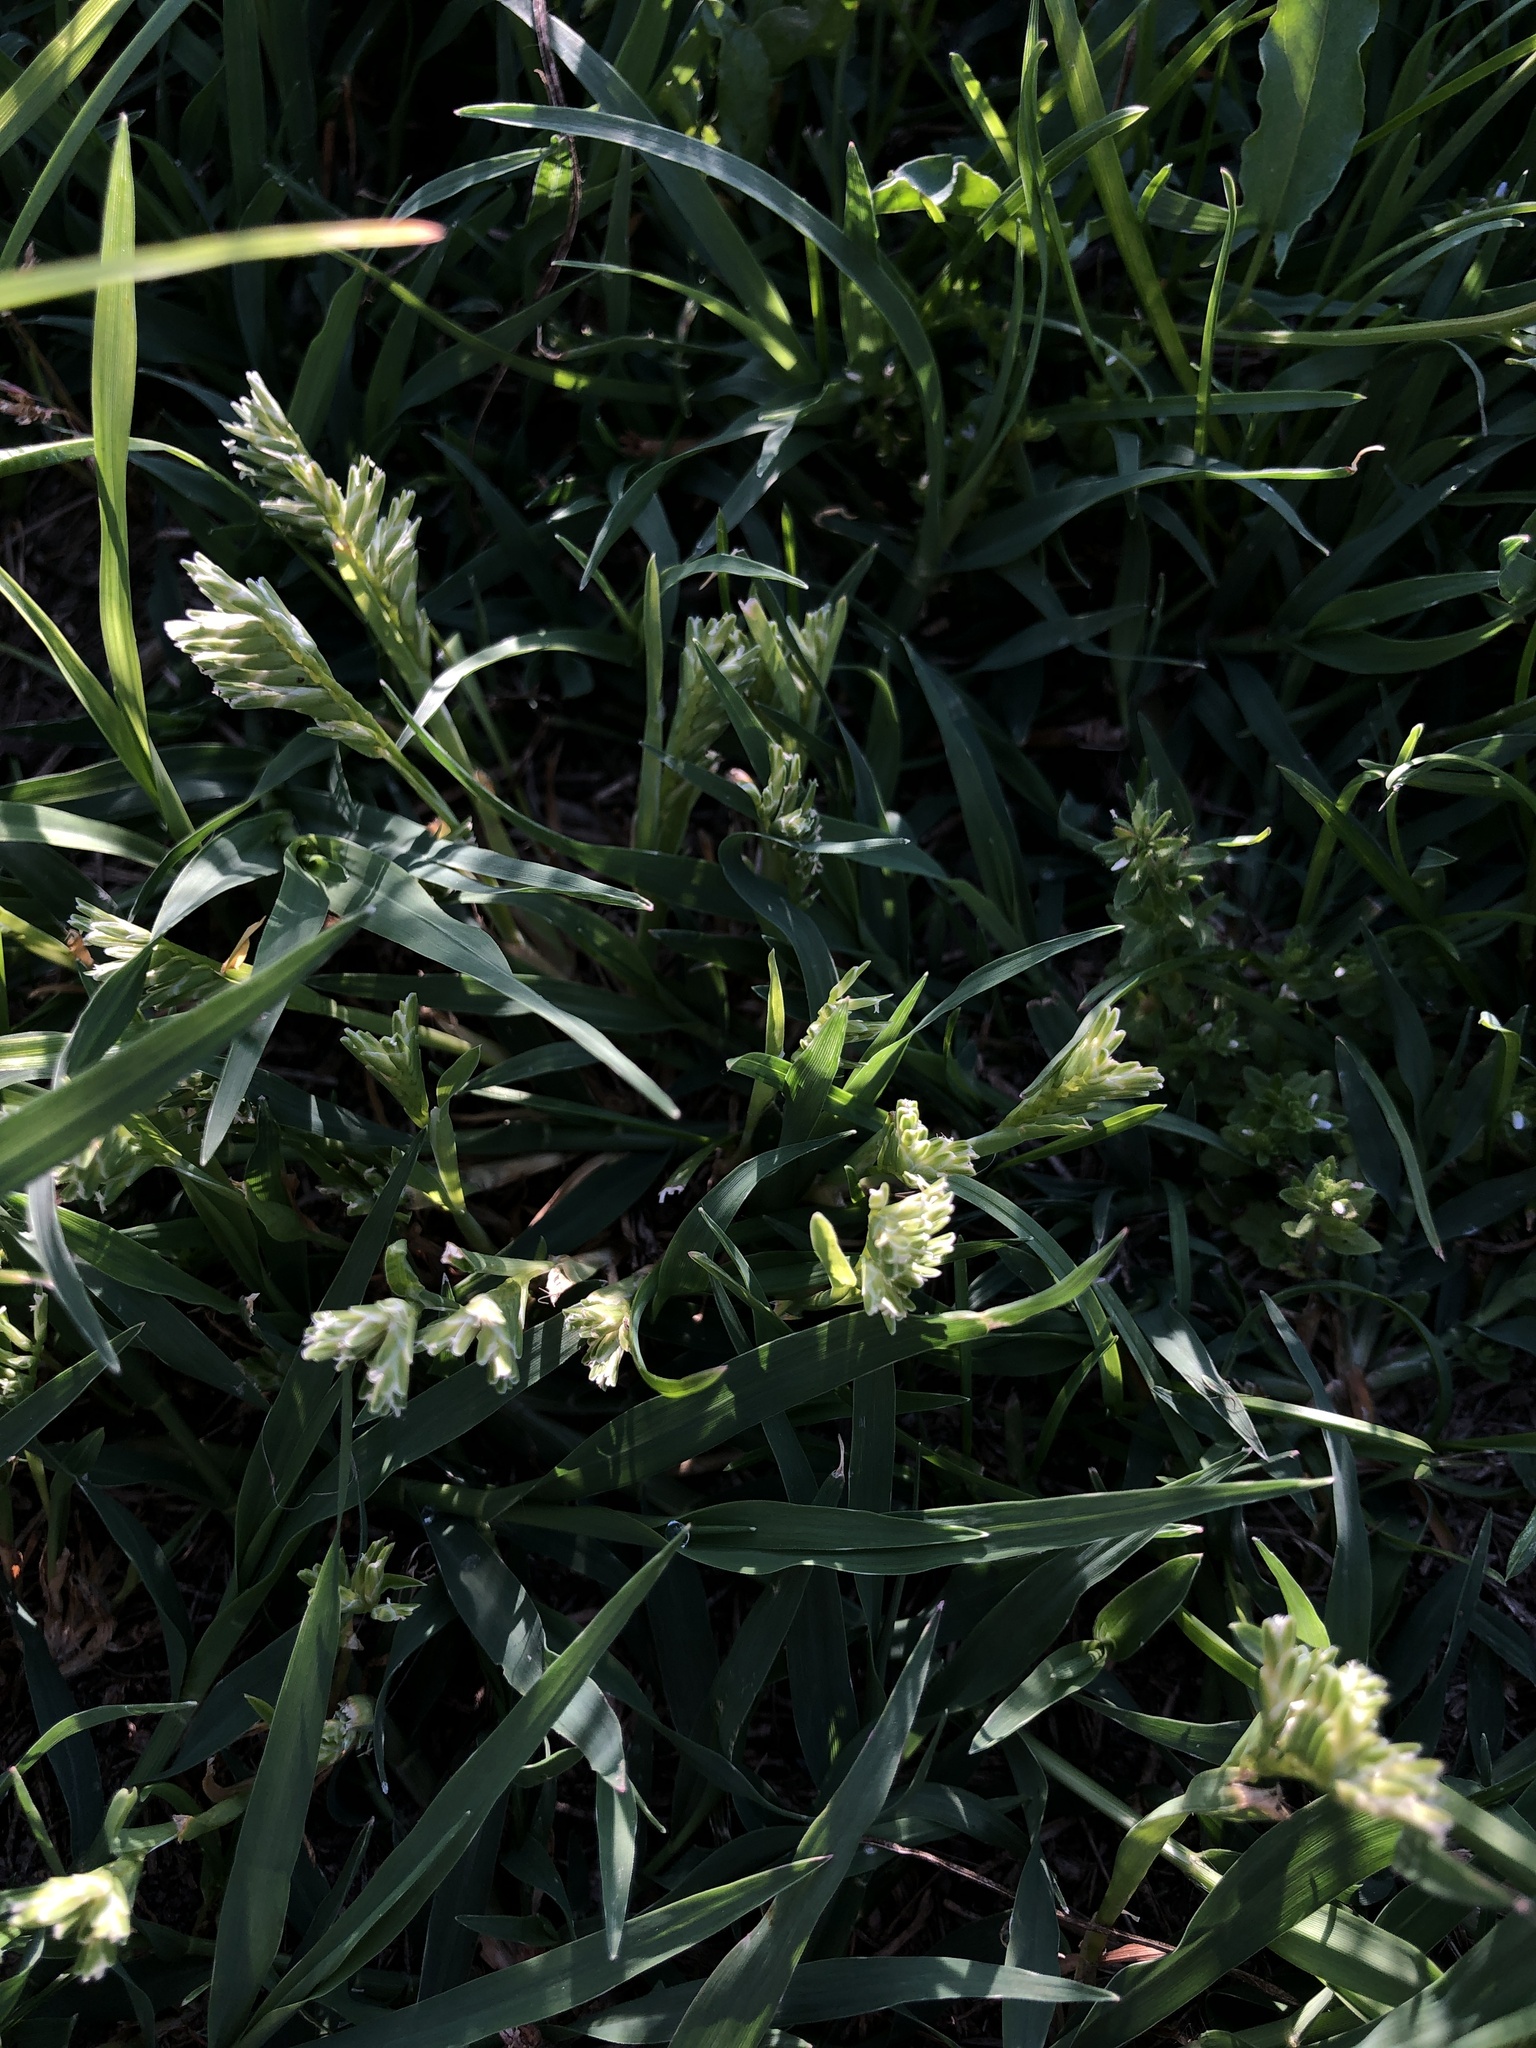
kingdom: Plantae
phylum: Tracheophyta
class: Liliopsida
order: Poales
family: Poaceae
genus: Sclerochloa
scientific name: Sclerochloa dura
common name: Common hardgrass
